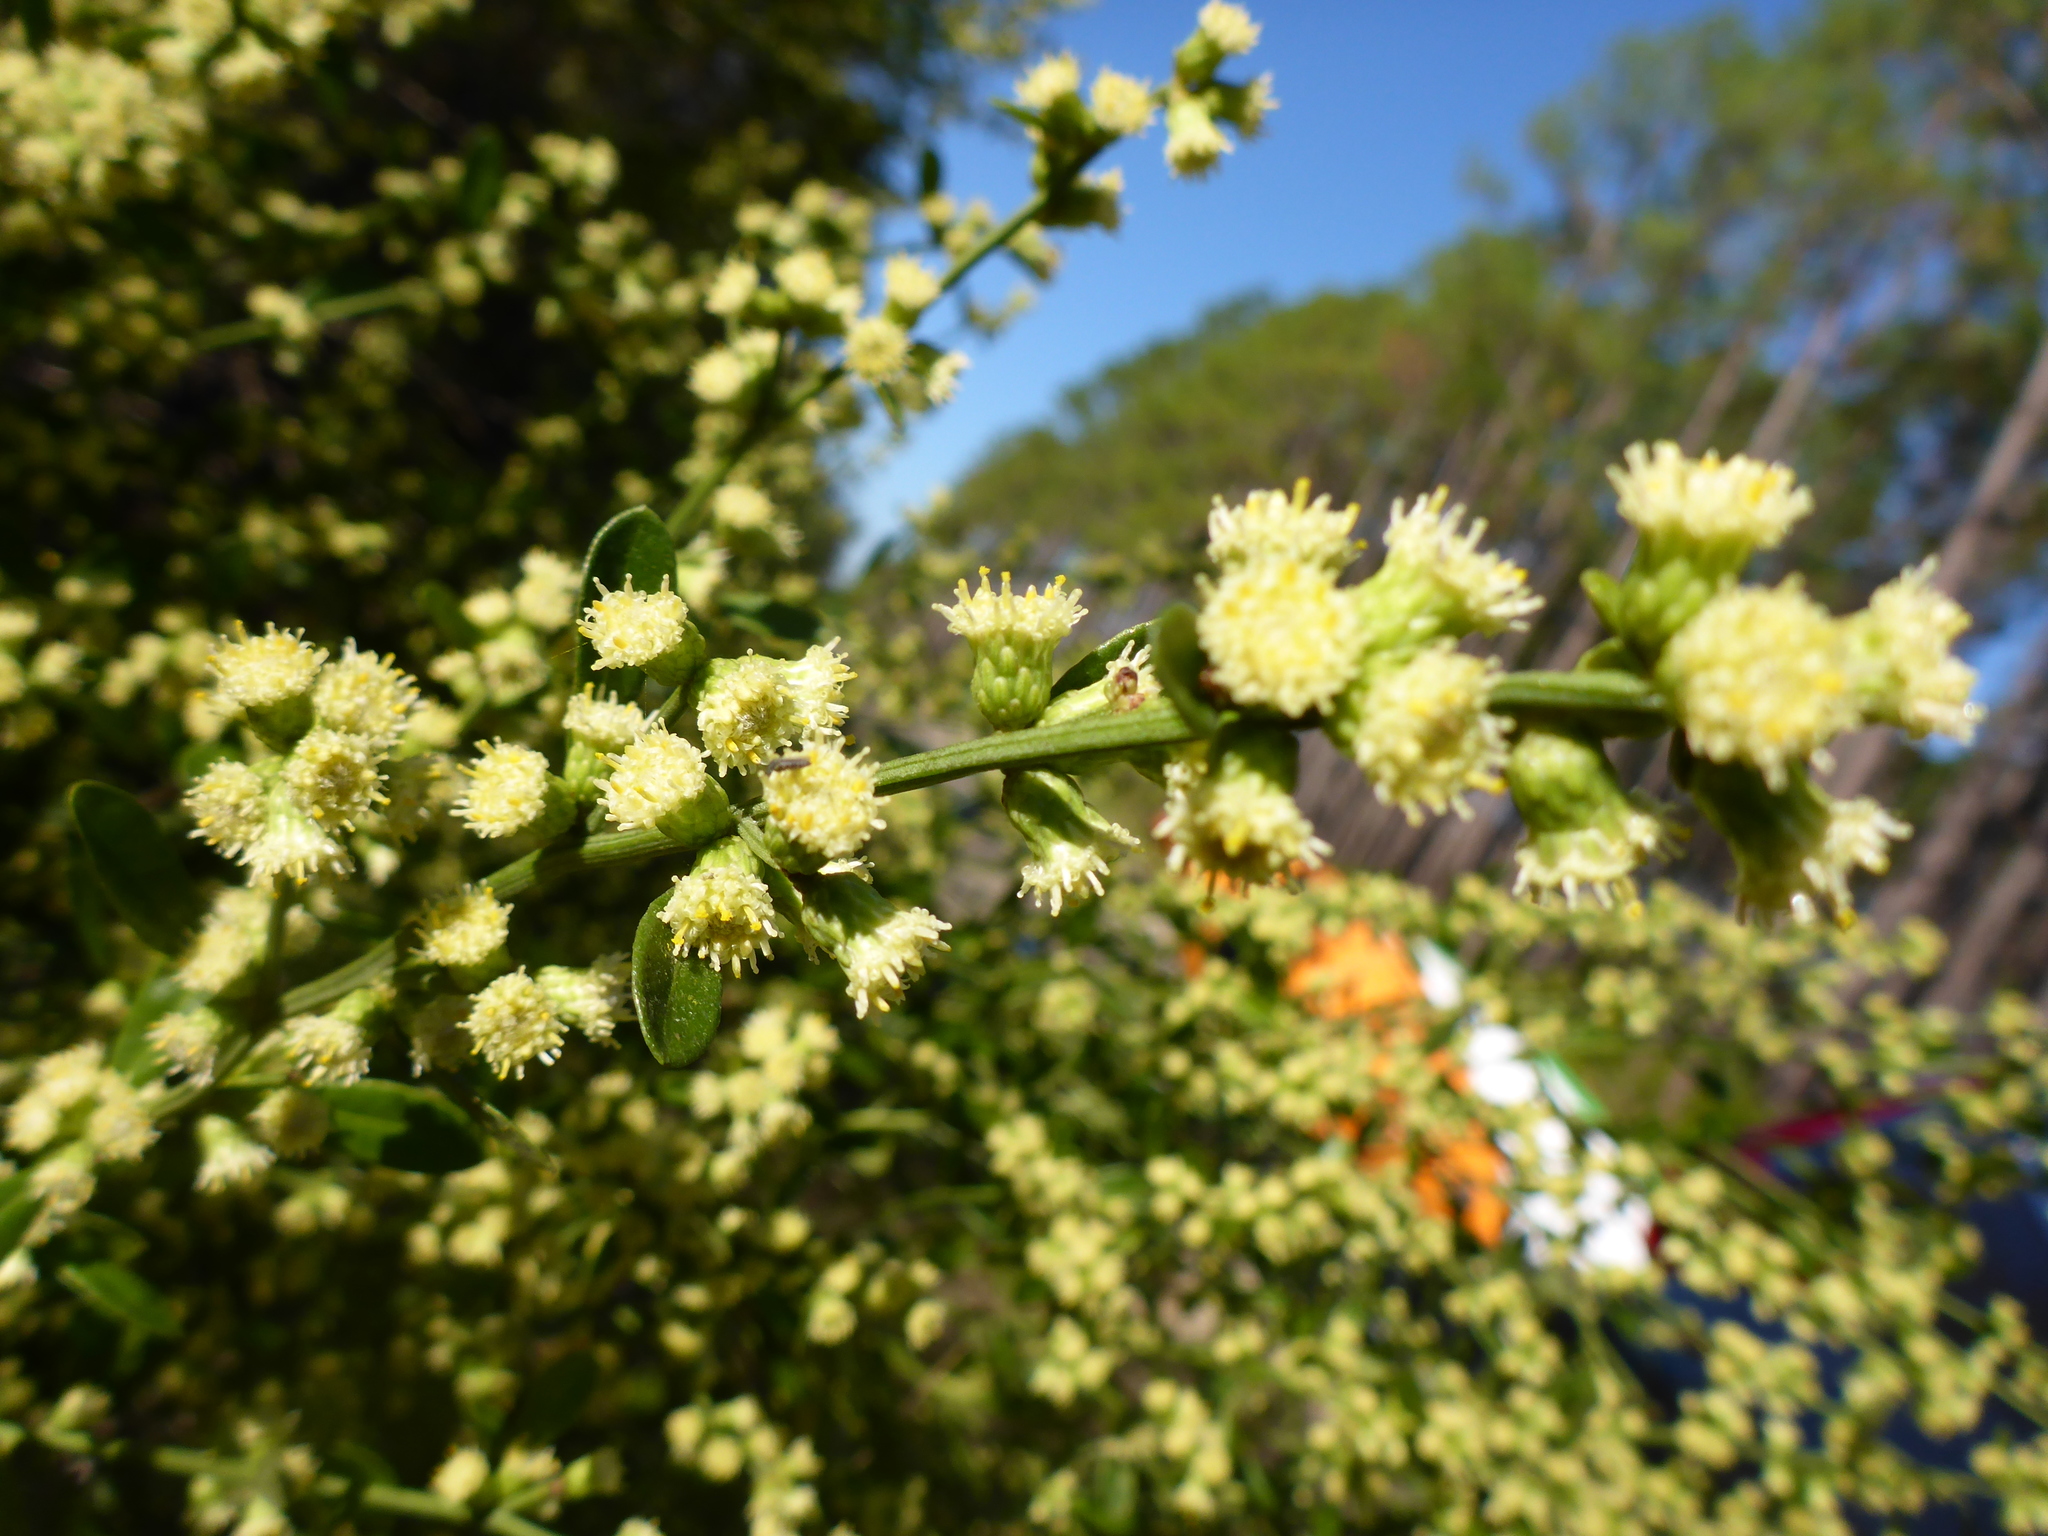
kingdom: Plantae
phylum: Tracheophyta
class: Magnoliopsida
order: Asterales
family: Asteraceae
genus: Baccharis
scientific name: Baccharis glomeruliflora
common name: Silverling groundsel bush
